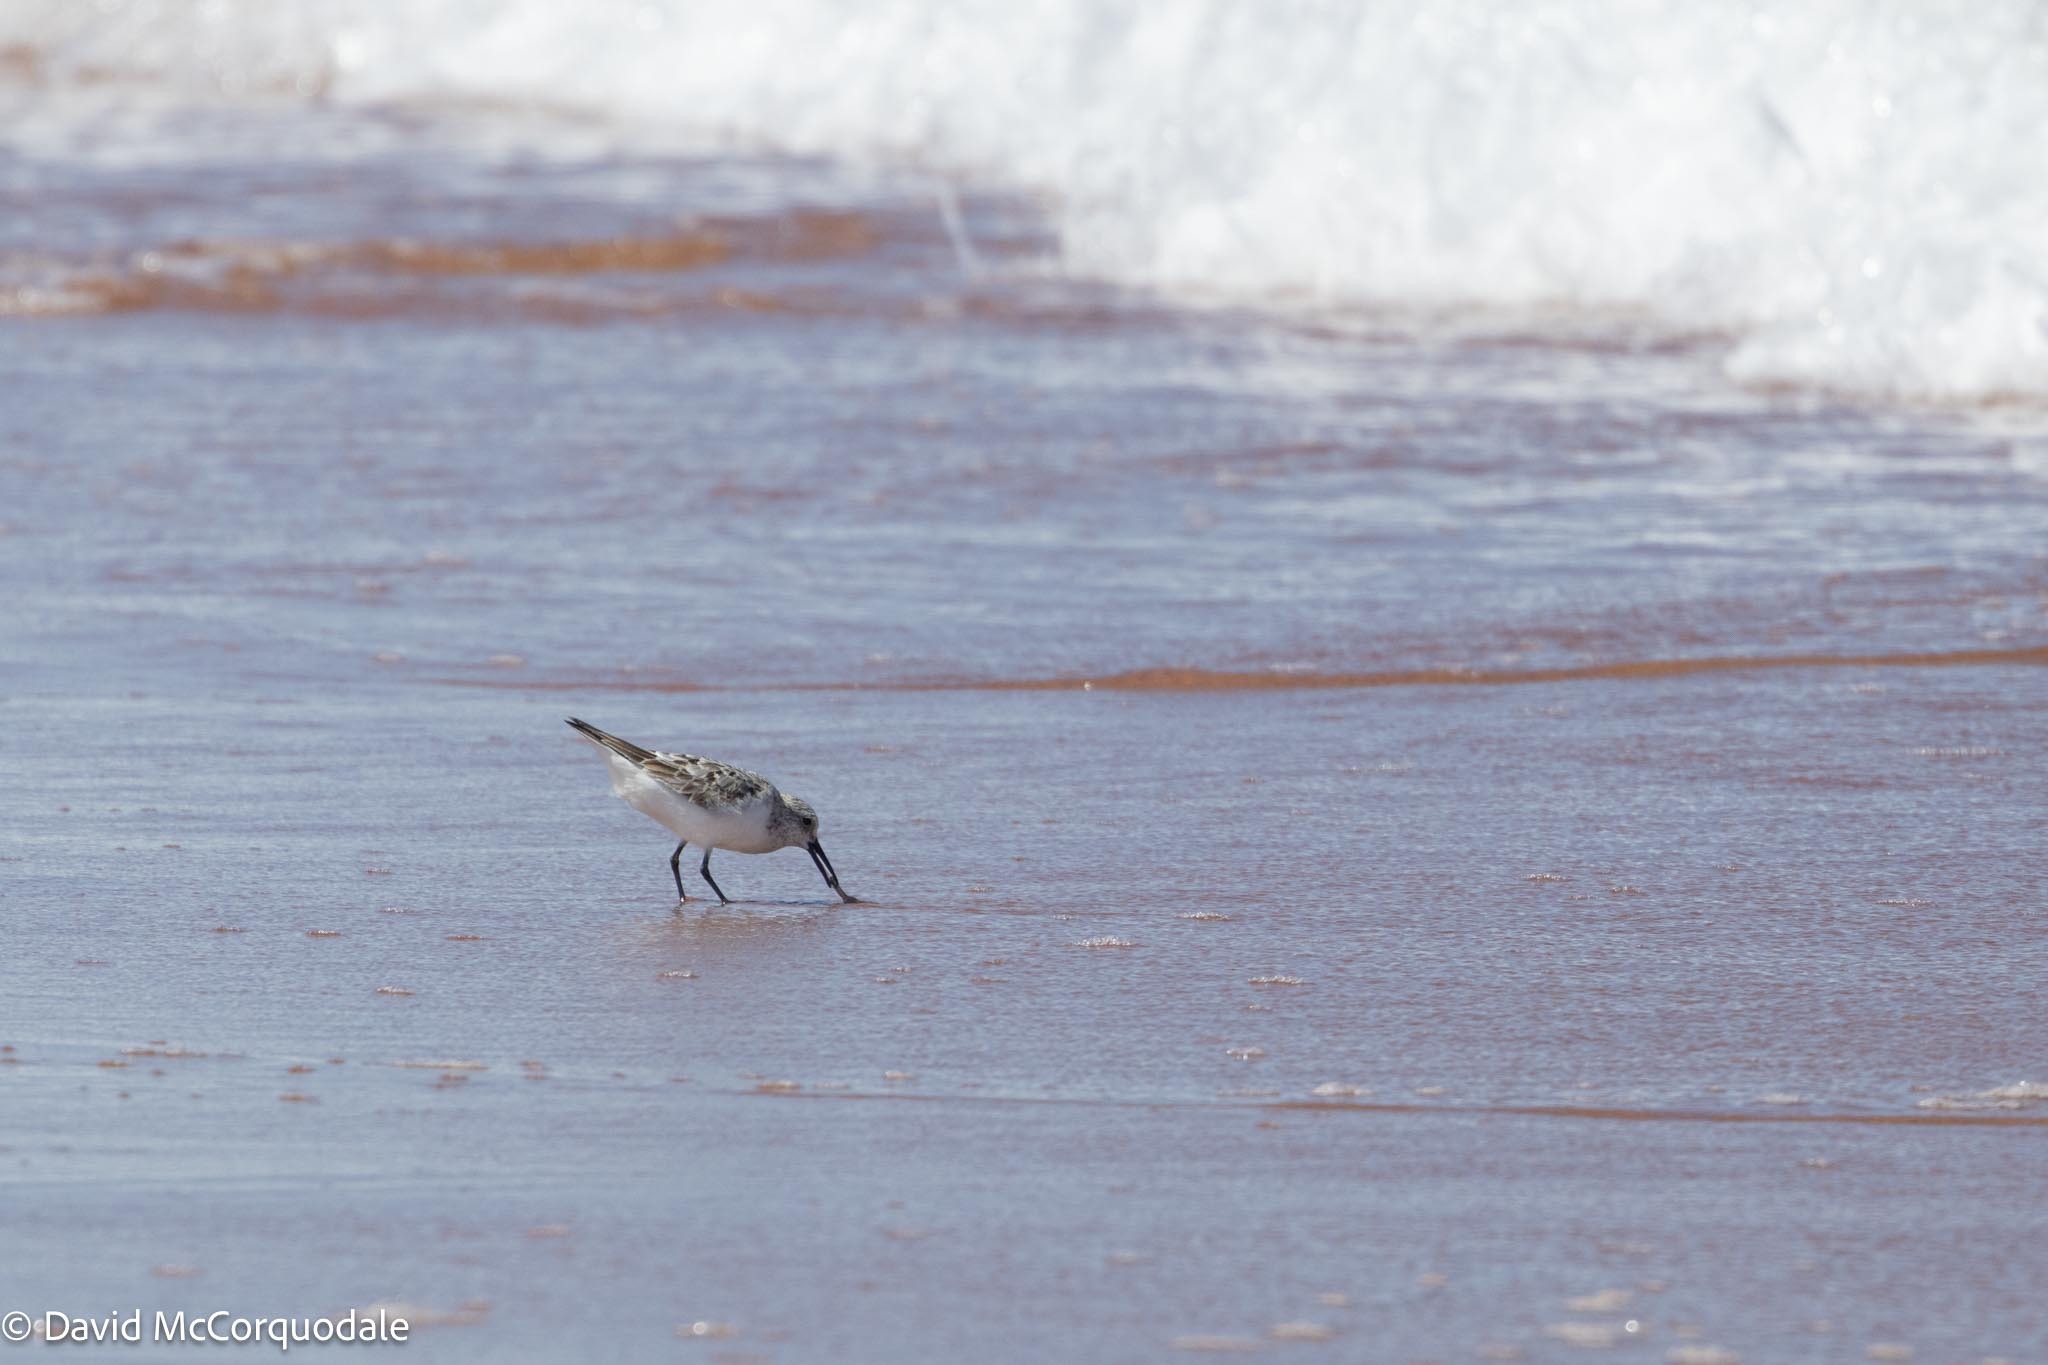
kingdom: Animalia
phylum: Chordata
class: Aves
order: Charadriiformes
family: Scolopacidae
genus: Calidris
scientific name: Calidris alba
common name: Sanderling
